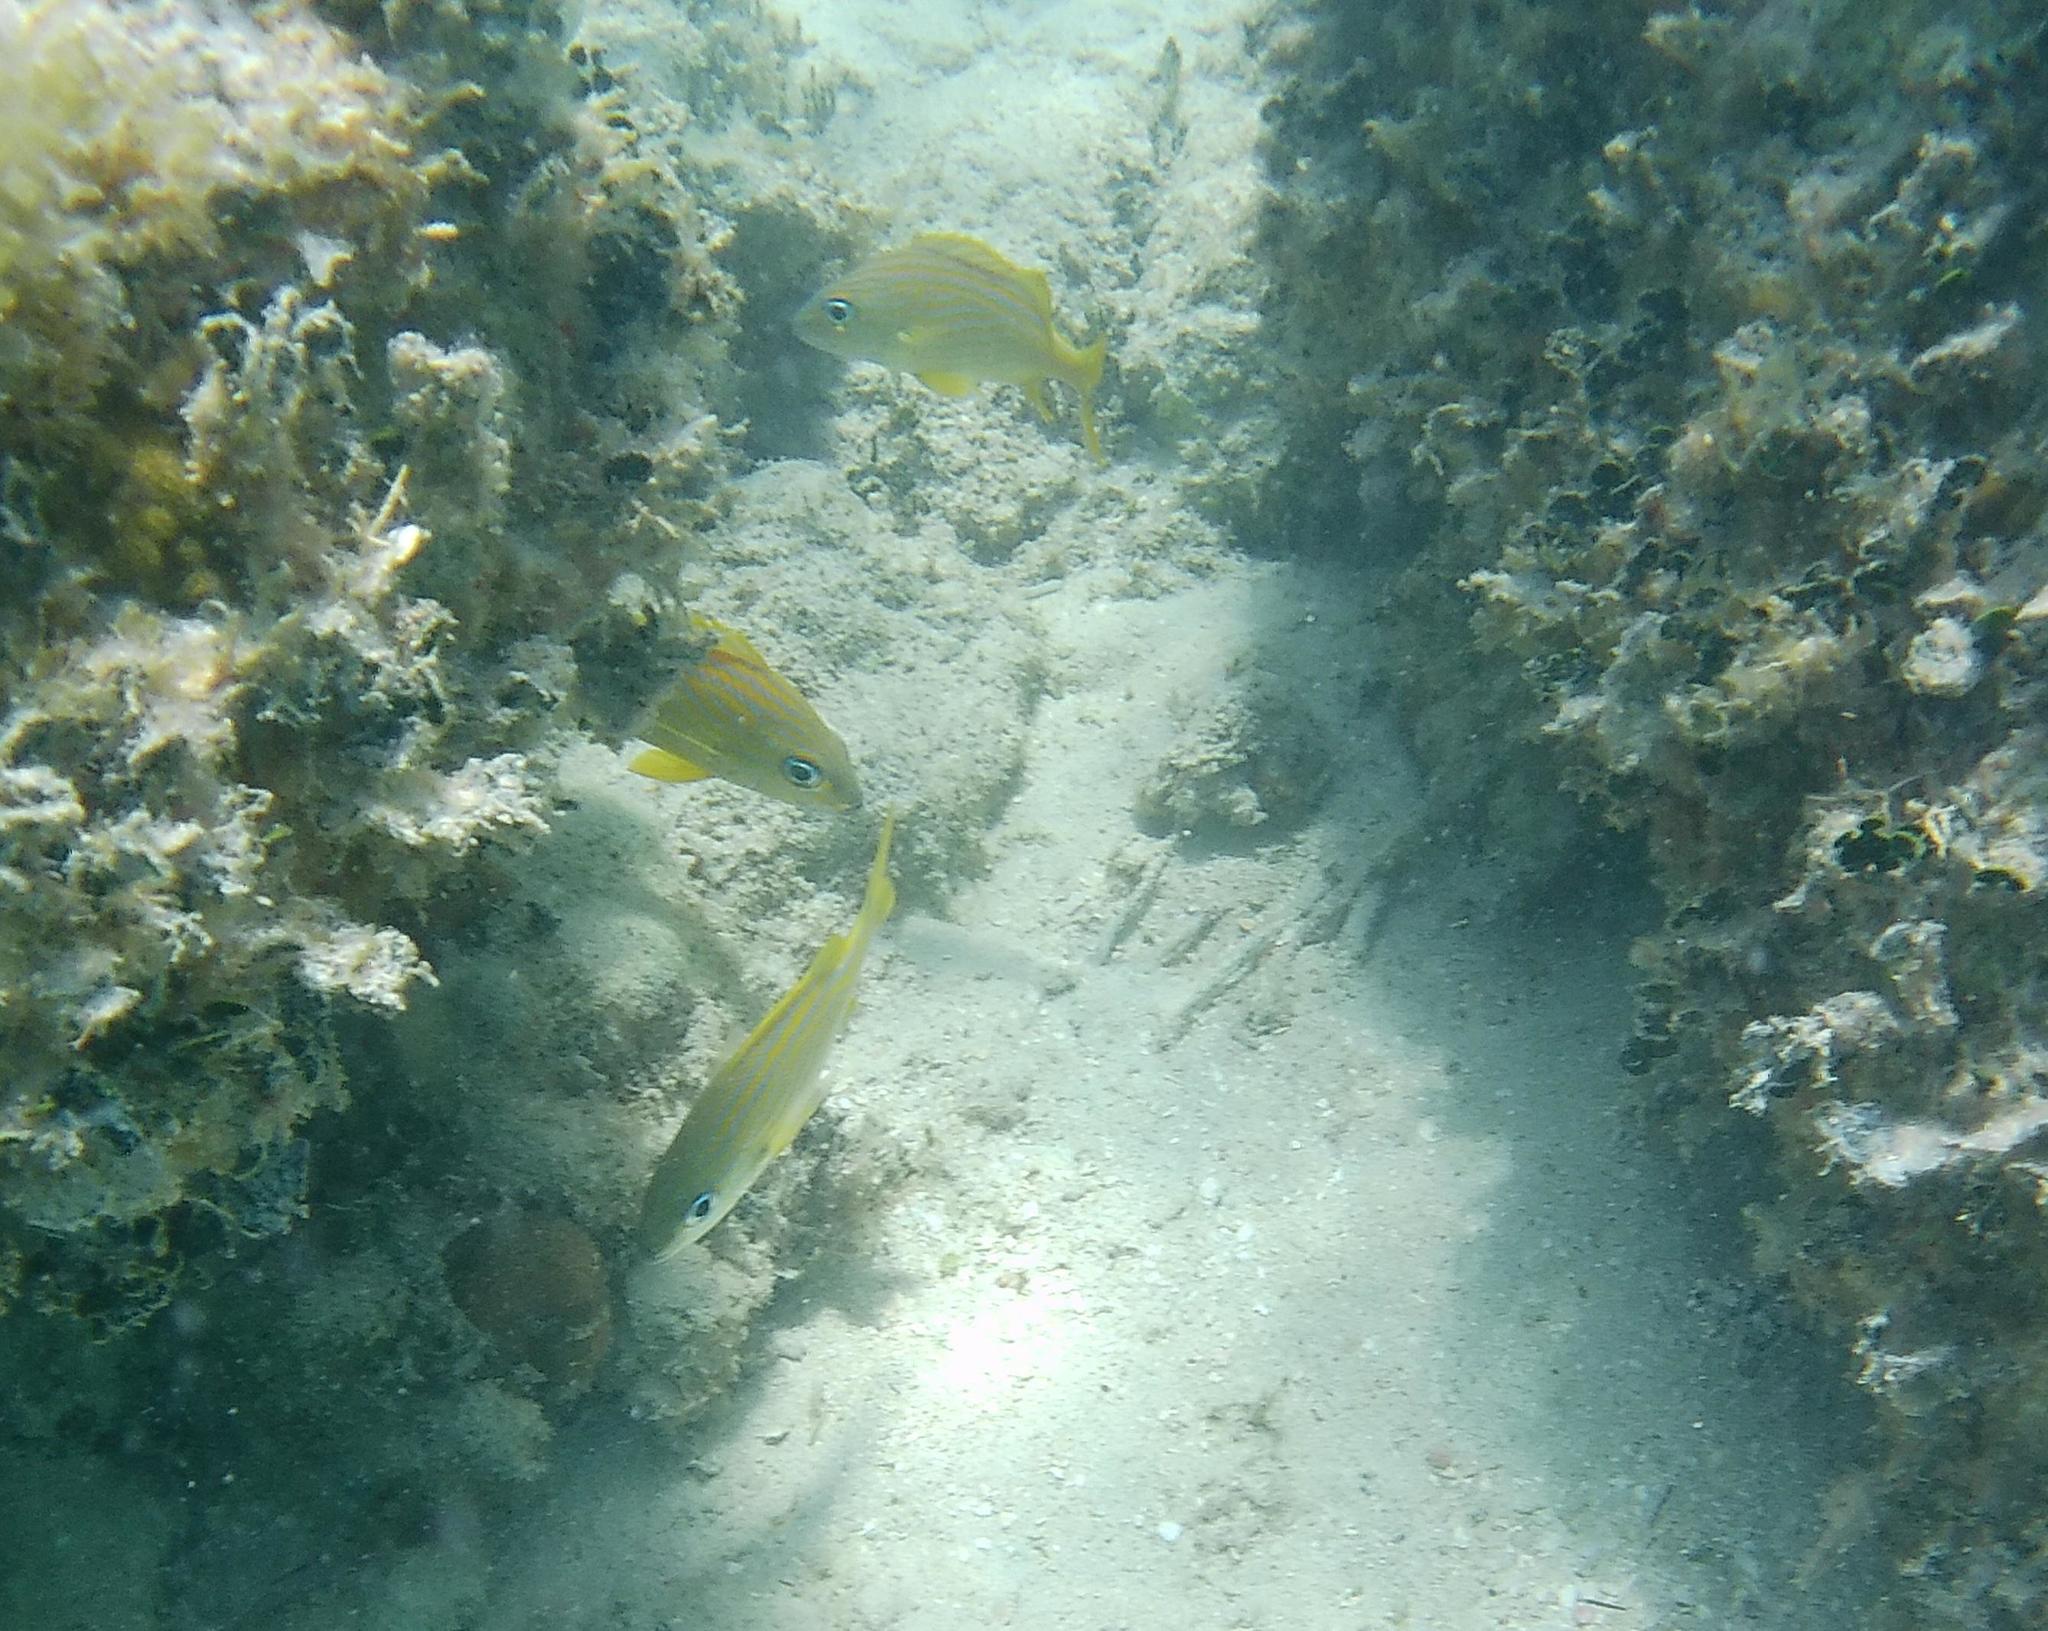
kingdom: Animalia
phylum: Chordata
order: Perciformes
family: Haemulidae
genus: Haemulon
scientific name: Haemulon flavolineatum
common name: French grunt
